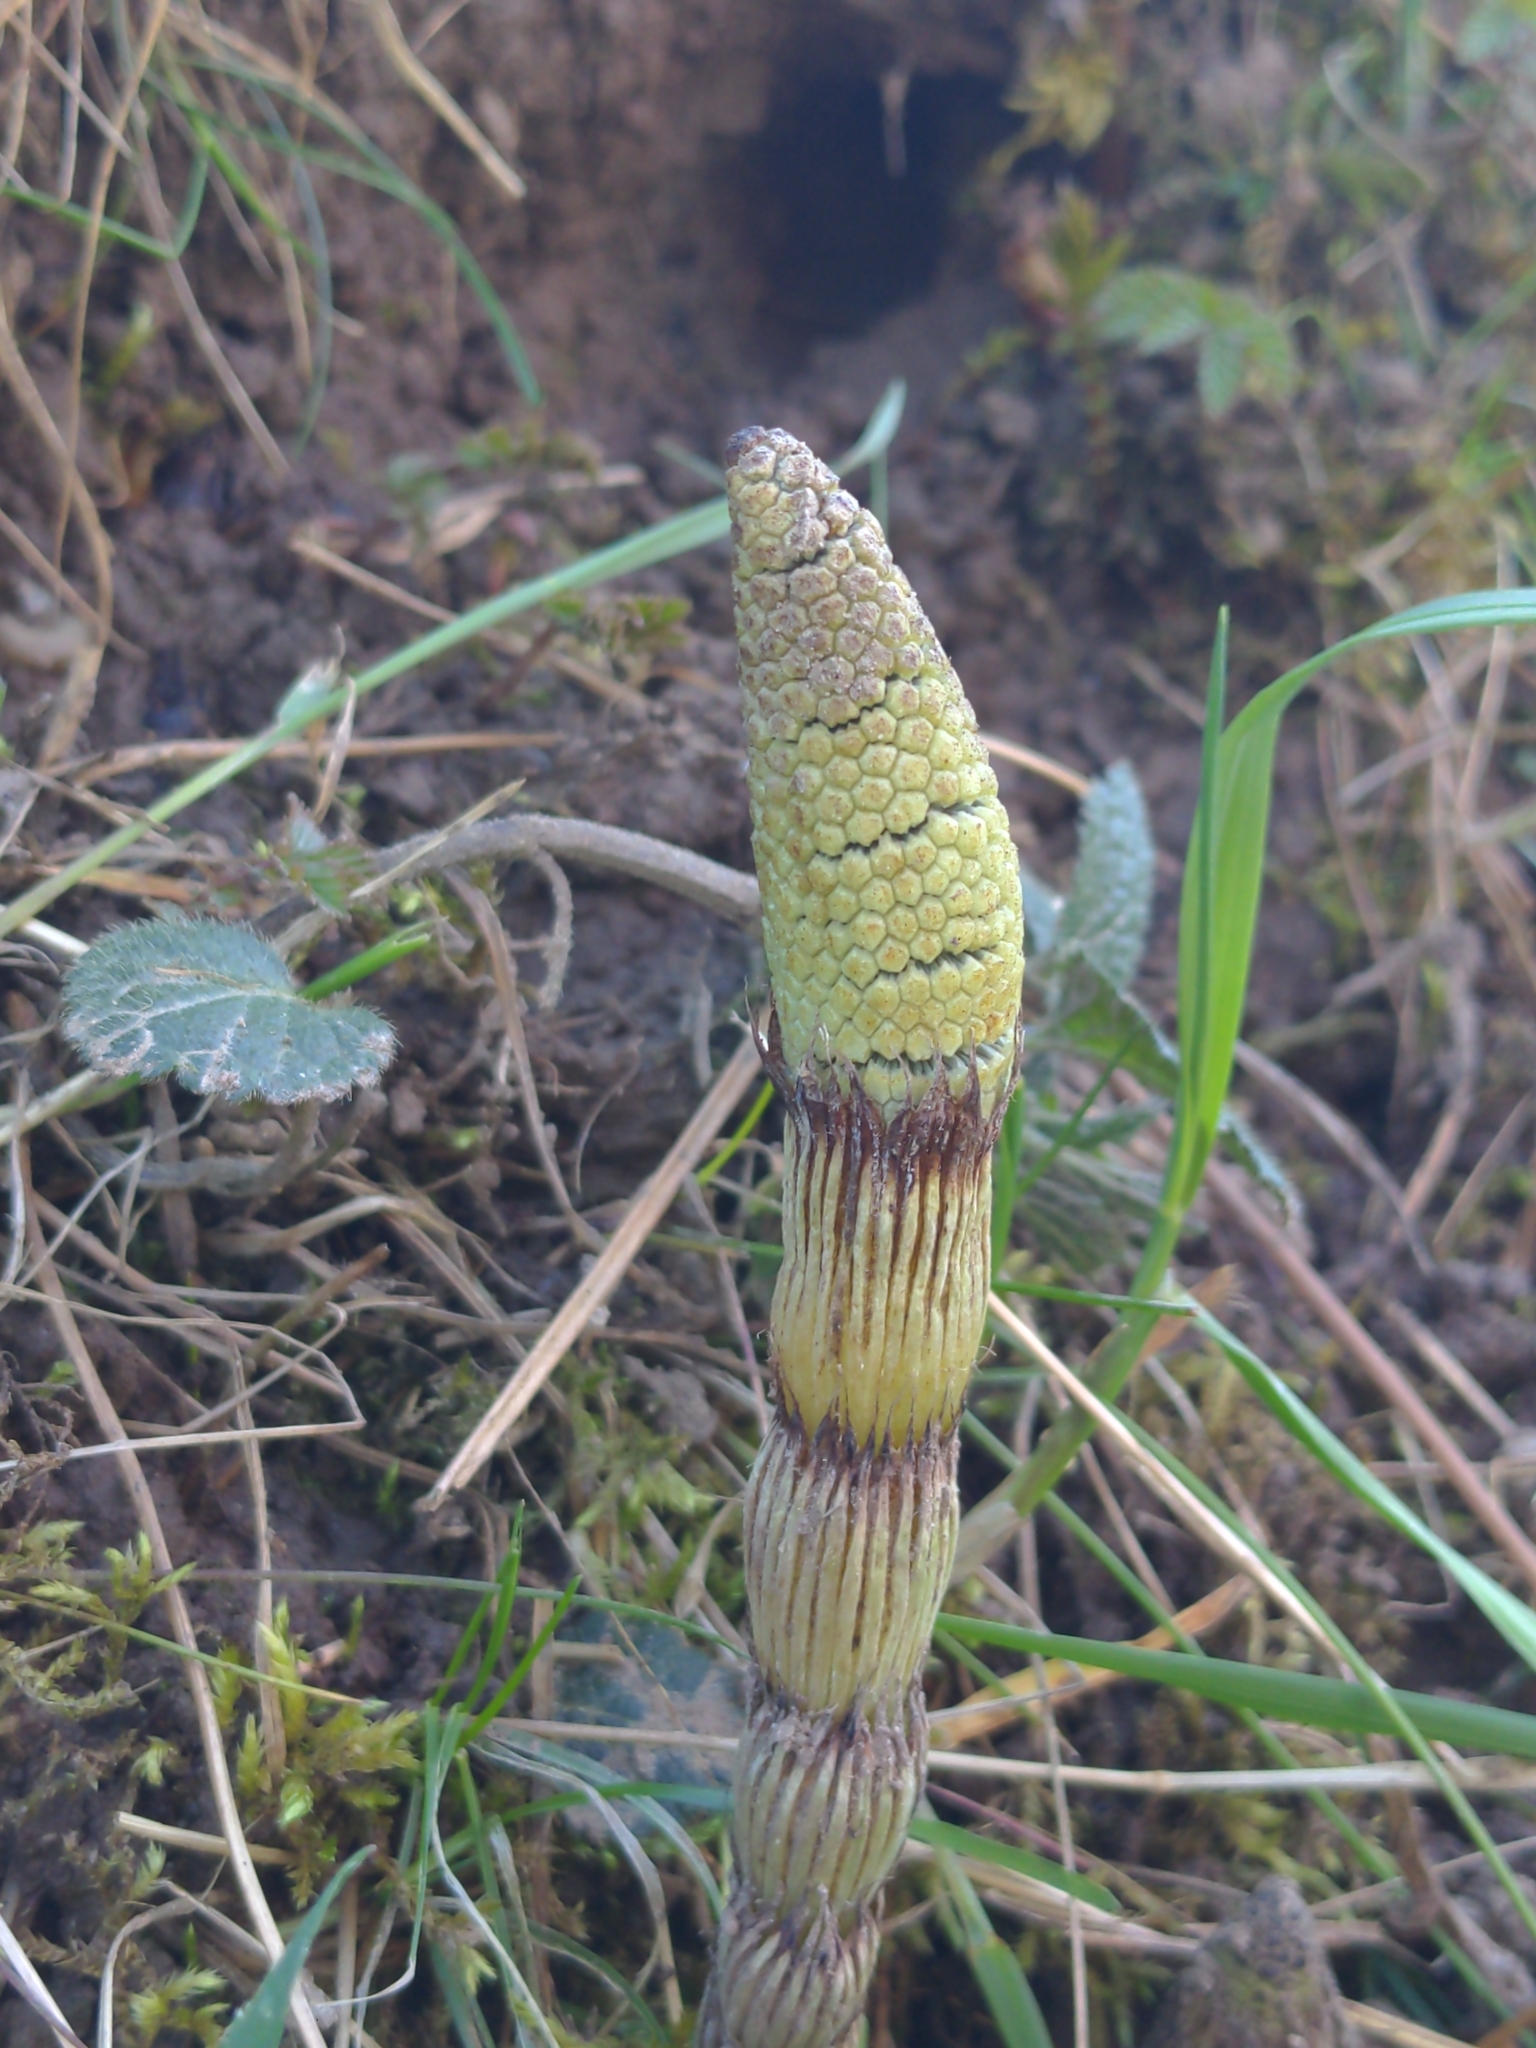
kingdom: Plantae
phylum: Tracheophyta
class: Polypodiopsida
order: Equisetales
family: Equisetaceae
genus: Equisetum
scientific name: Equisetum telmateia
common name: Great horsetail
